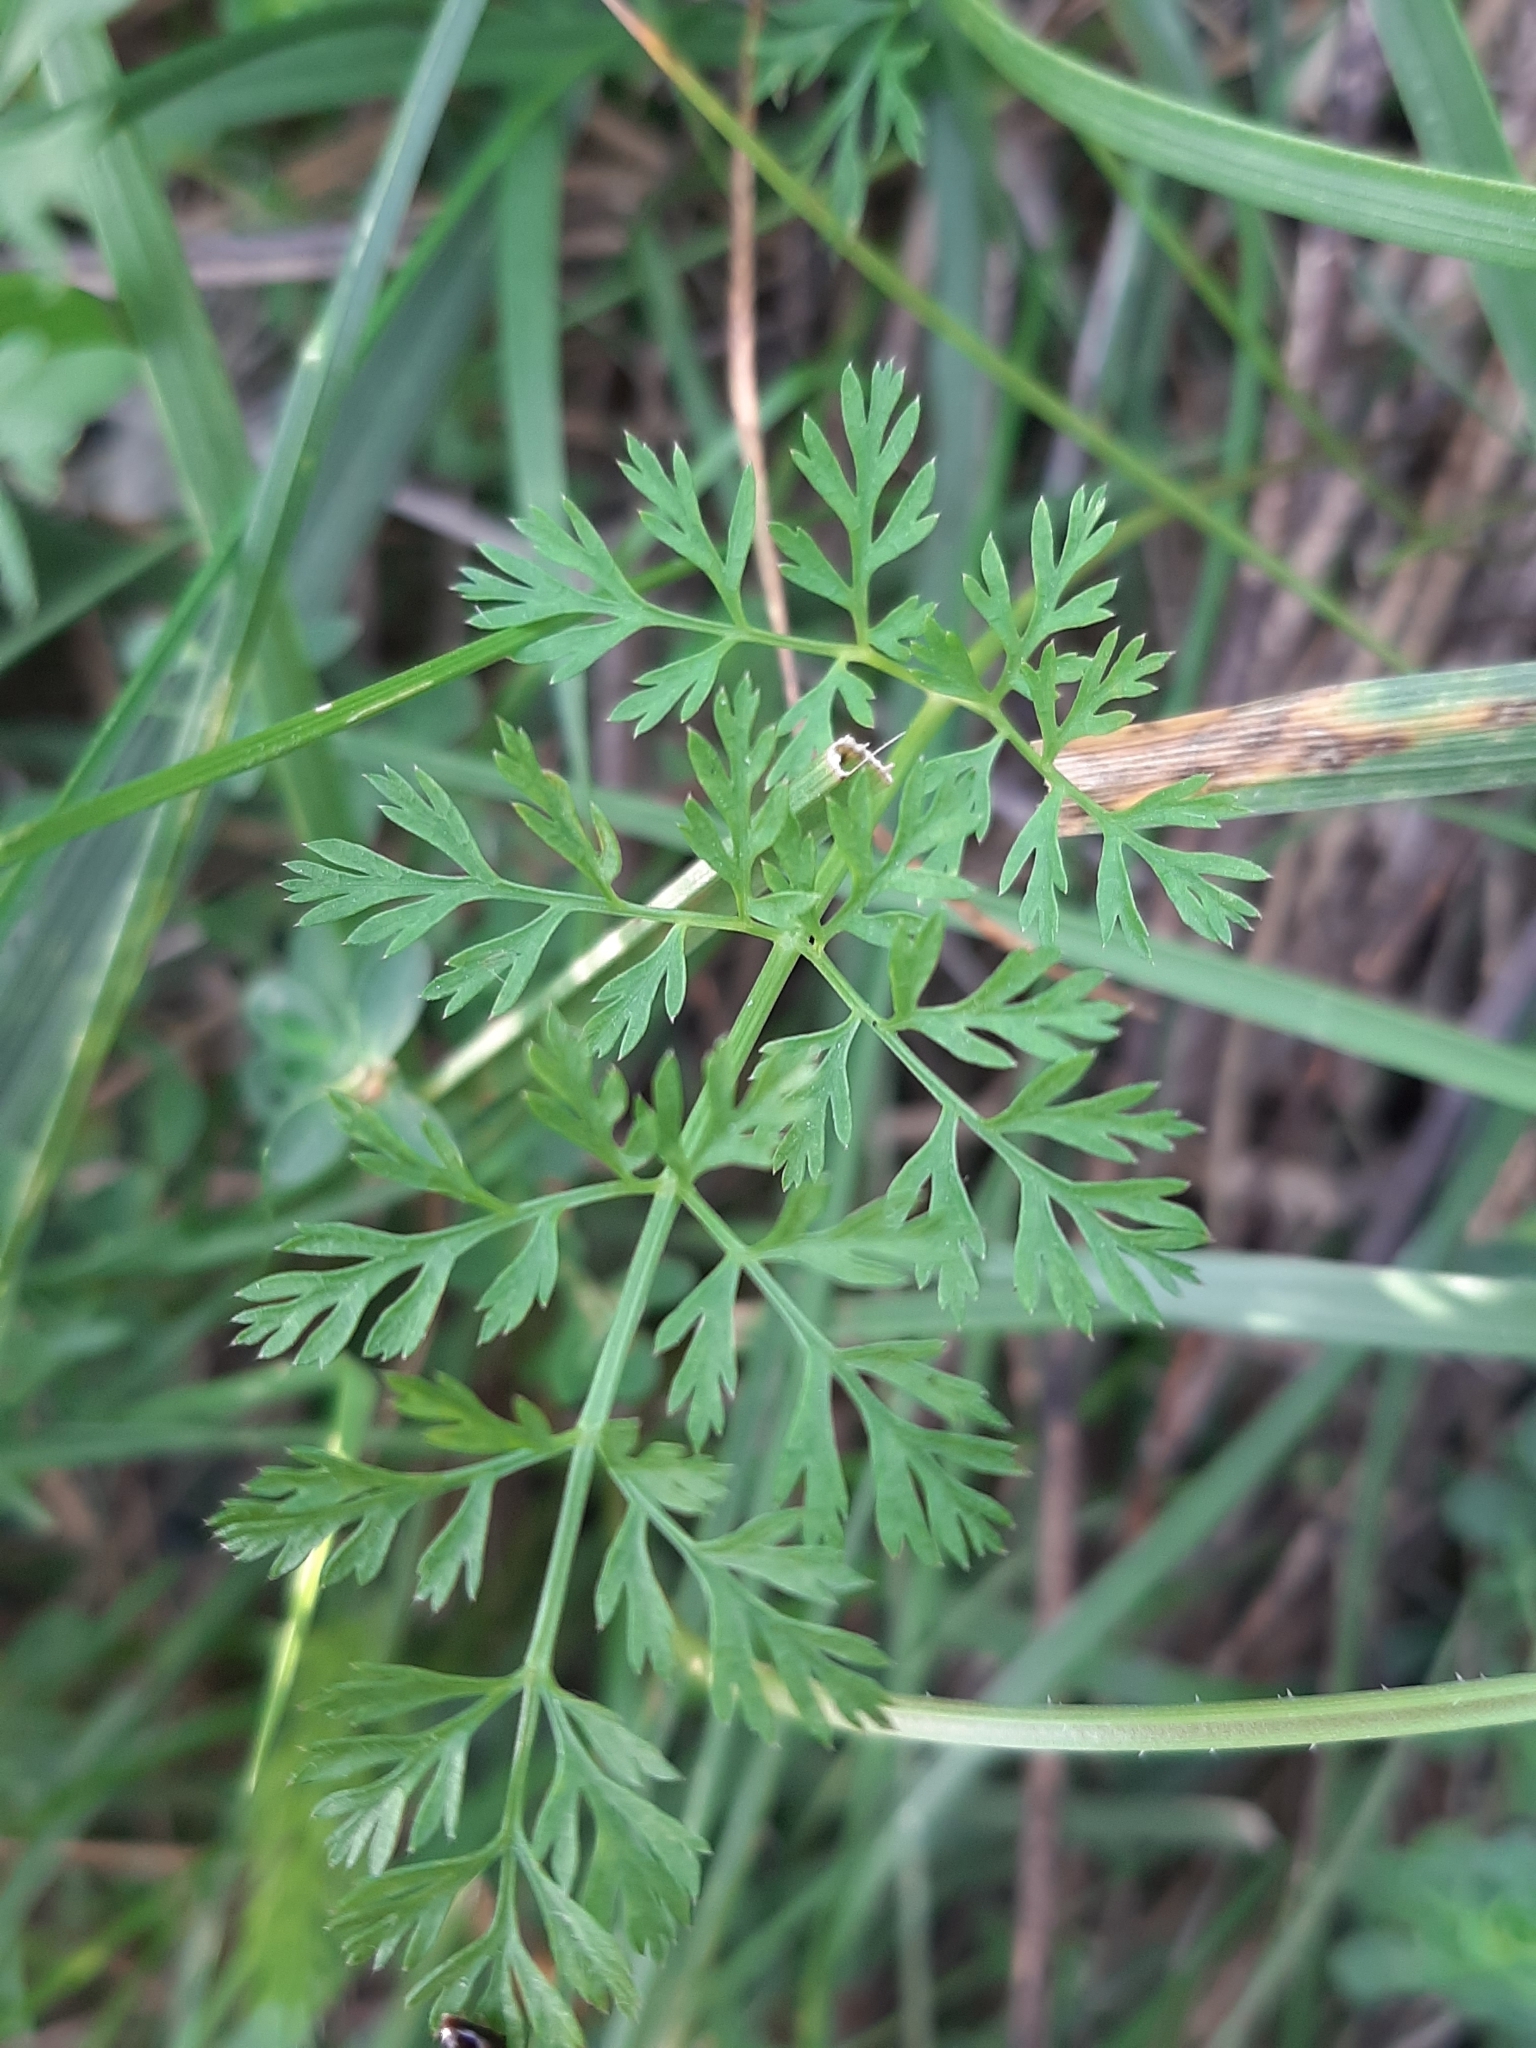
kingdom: Plantae
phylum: Tracheophyta
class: Magnoliopsida
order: Apiales
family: Apiaceae
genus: Daucus
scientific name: Daucus carota
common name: Wild carrot
